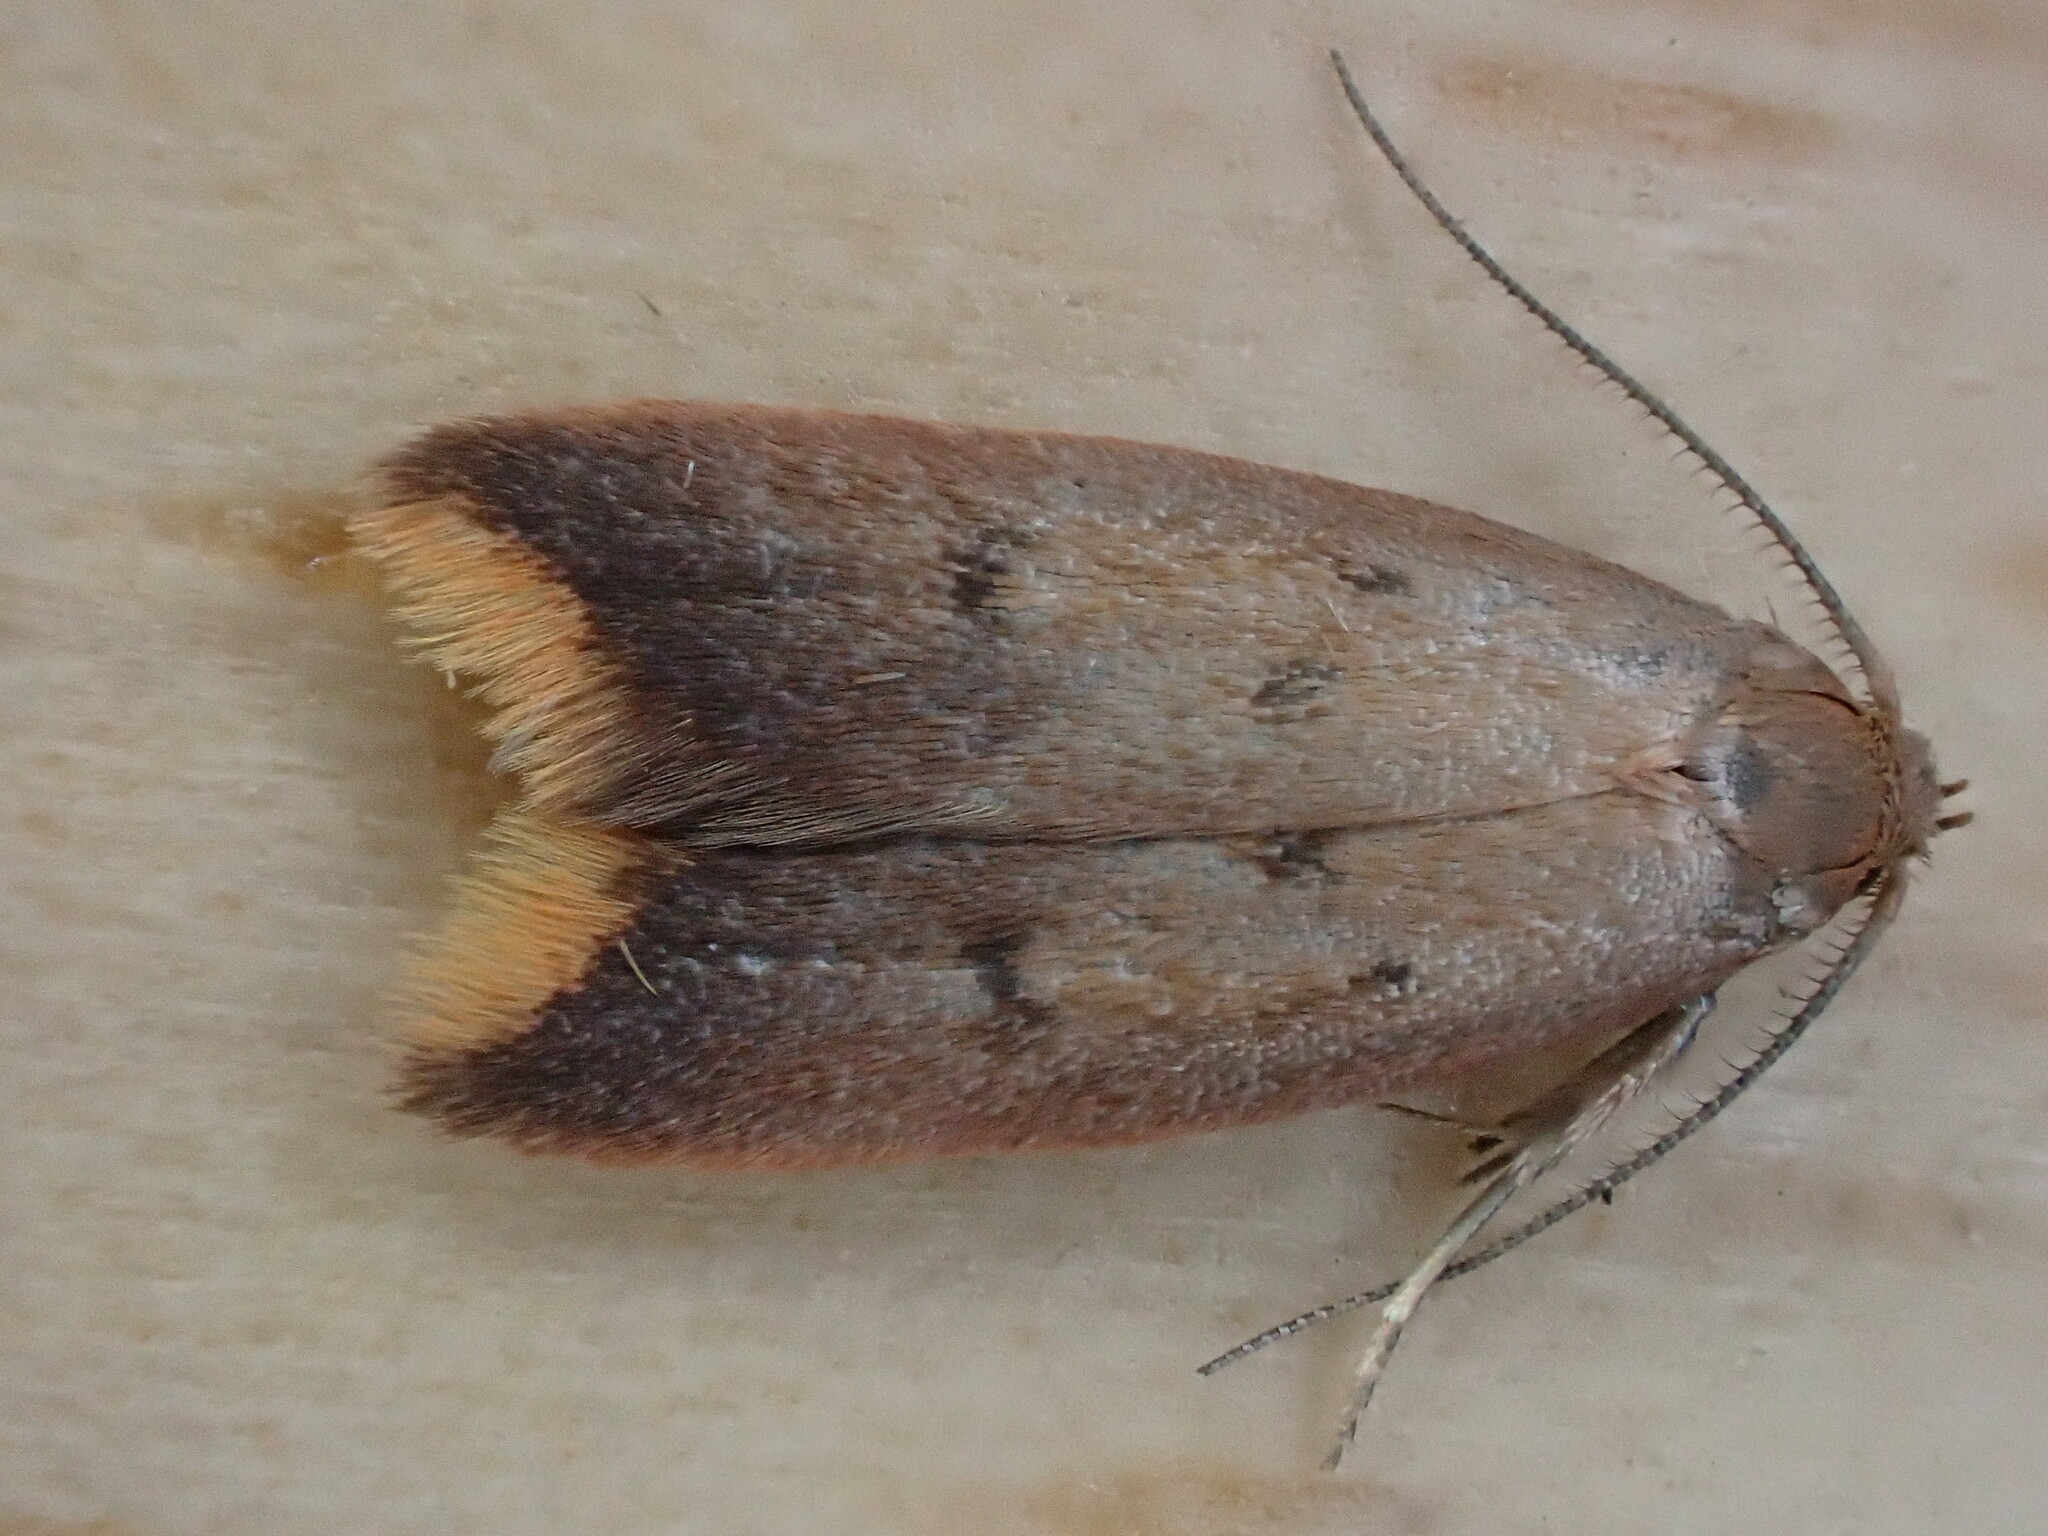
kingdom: Animalia
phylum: Arthropoda
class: Insecta
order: Lepidoptera
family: Oecophoridae
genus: Tachystola
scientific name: Tachystola acroxantha
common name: Ruddy streak
